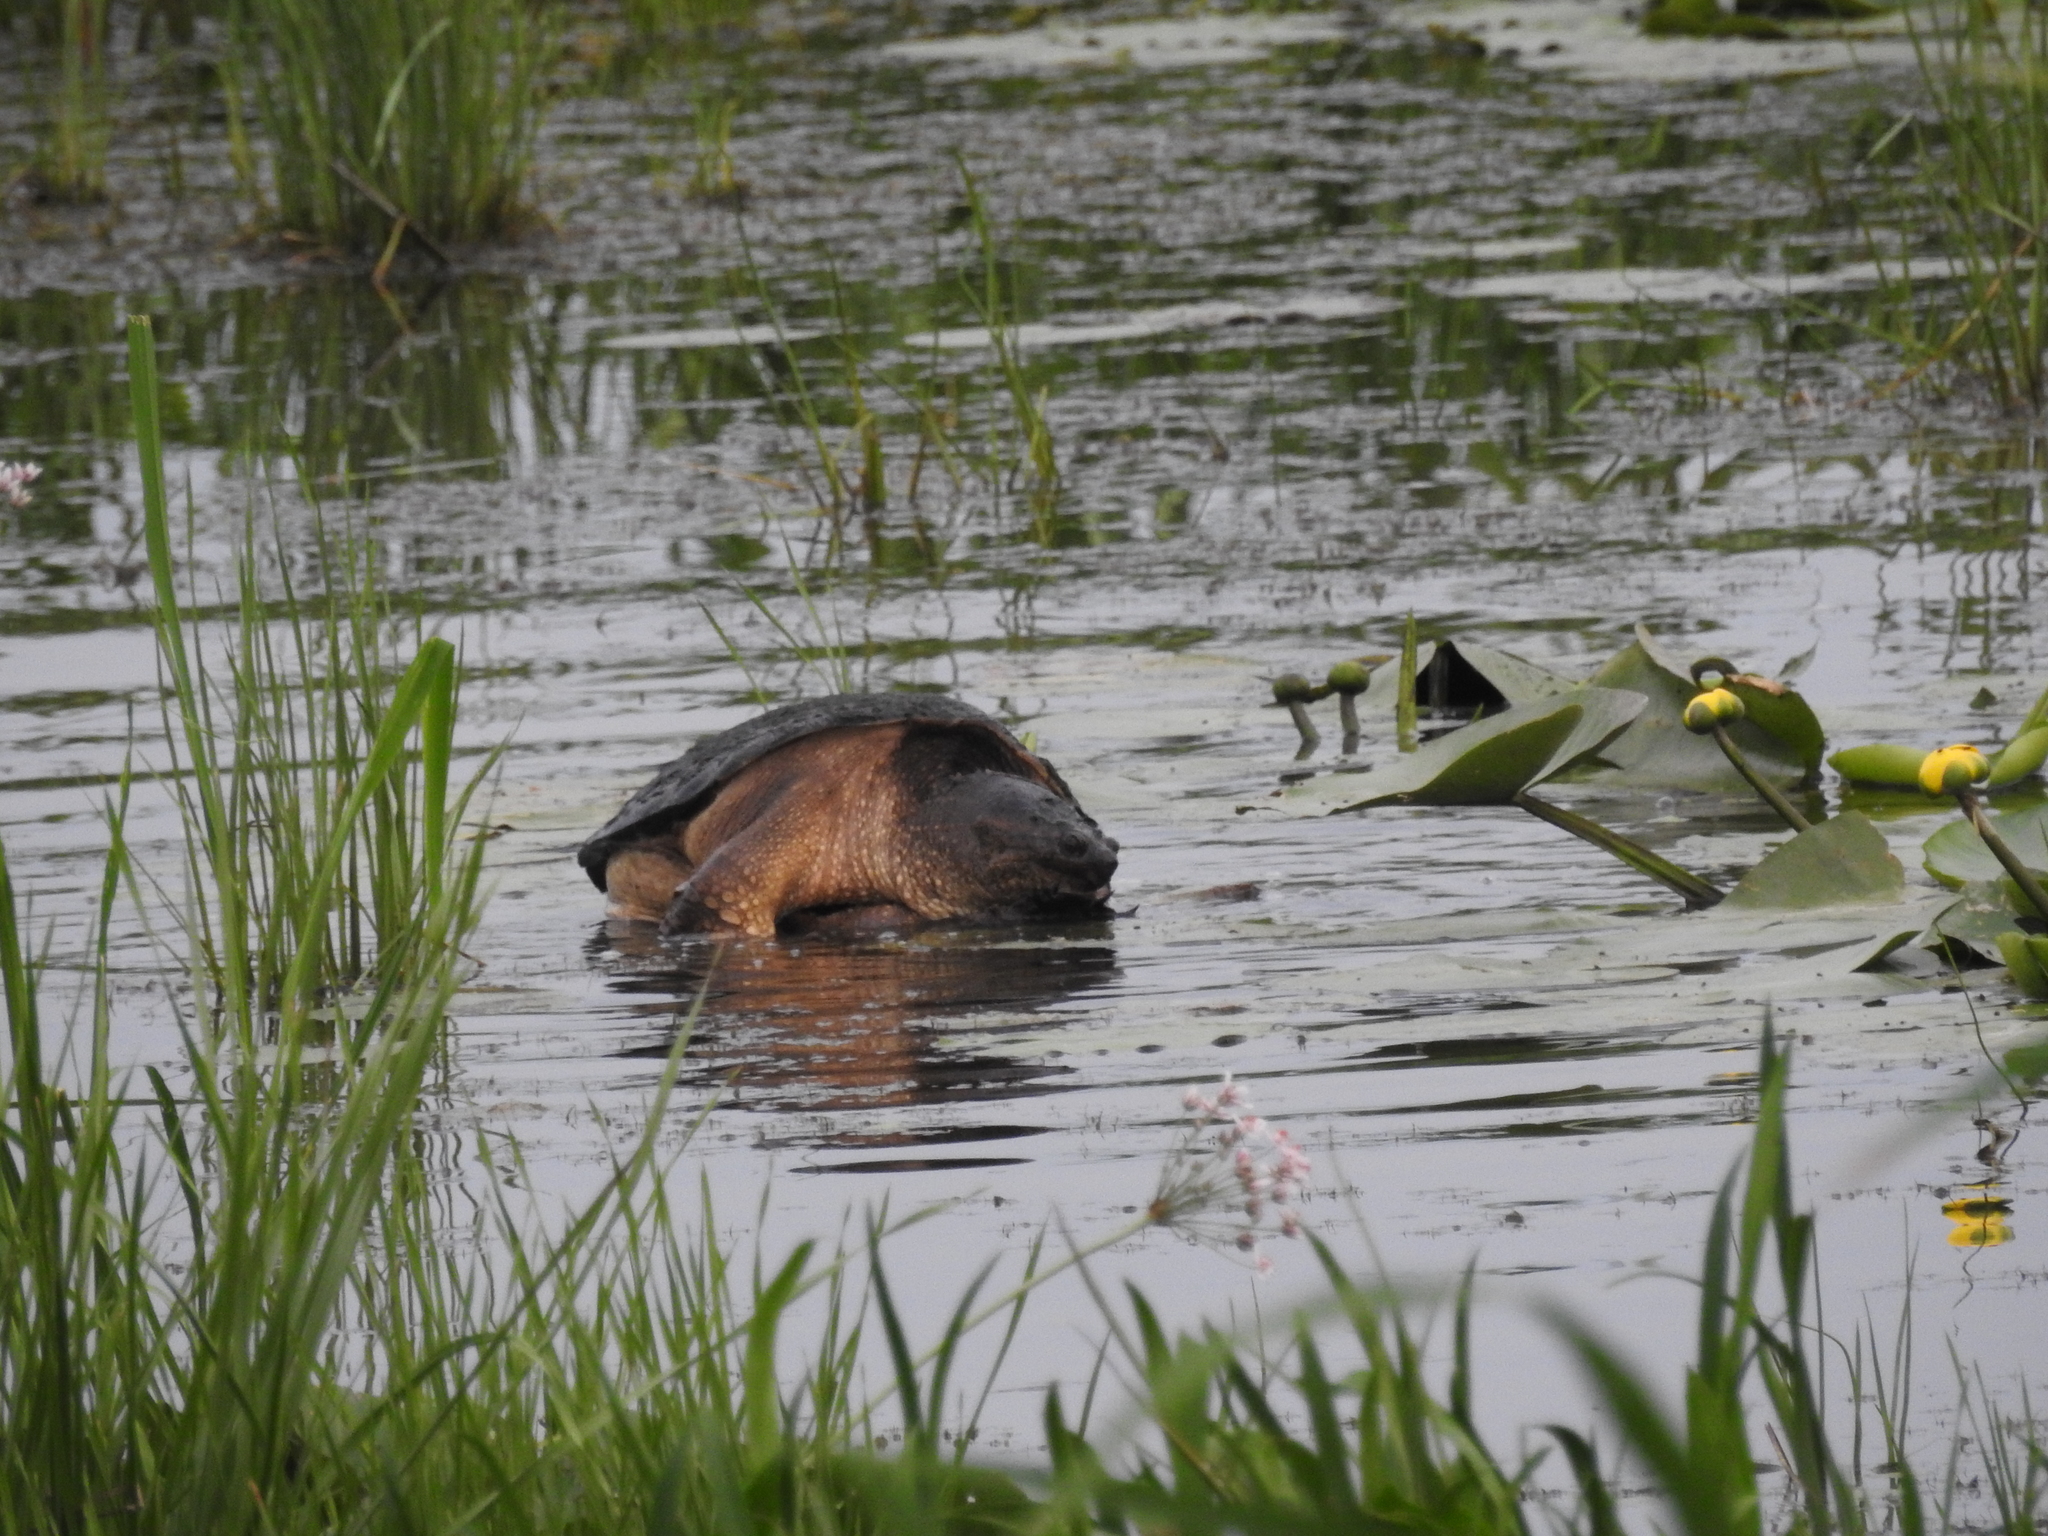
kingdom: Animalia
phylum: Chordata
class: Testudines
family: Chelydridae
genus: Chelydra
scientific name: Chelydra serpentina
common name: Common snapping turtle
